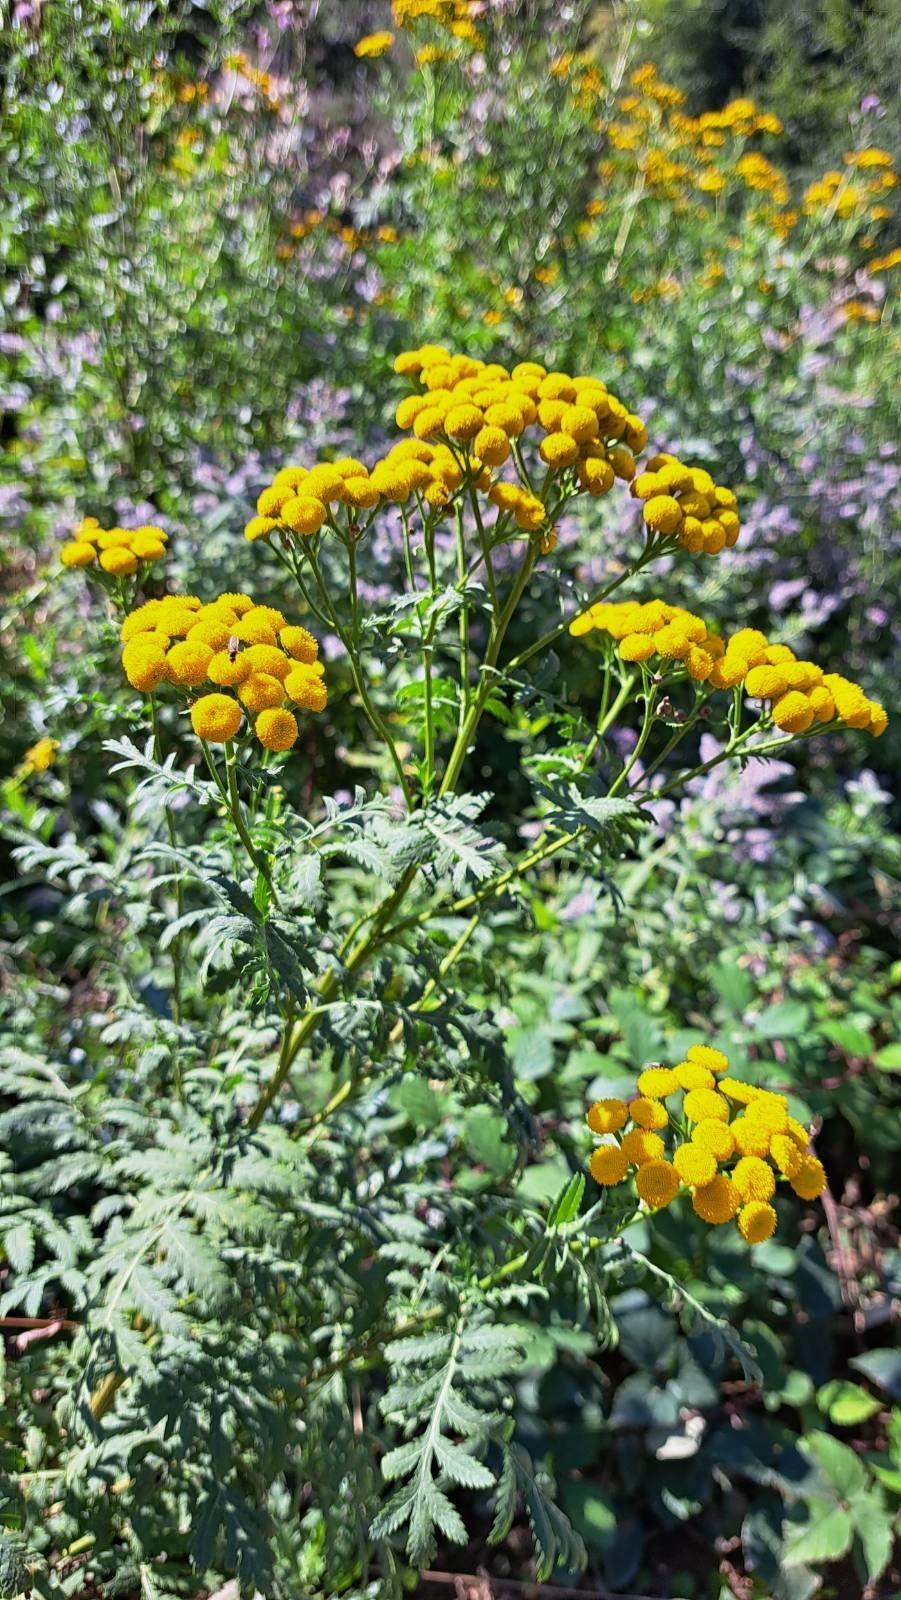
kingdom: Plantae
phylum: Tracheophyta
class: Magnoliopsida
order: Asterales
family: Asteraceae
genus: Tanacetum
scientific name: Tanacetum vulgare
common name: Common tansy
